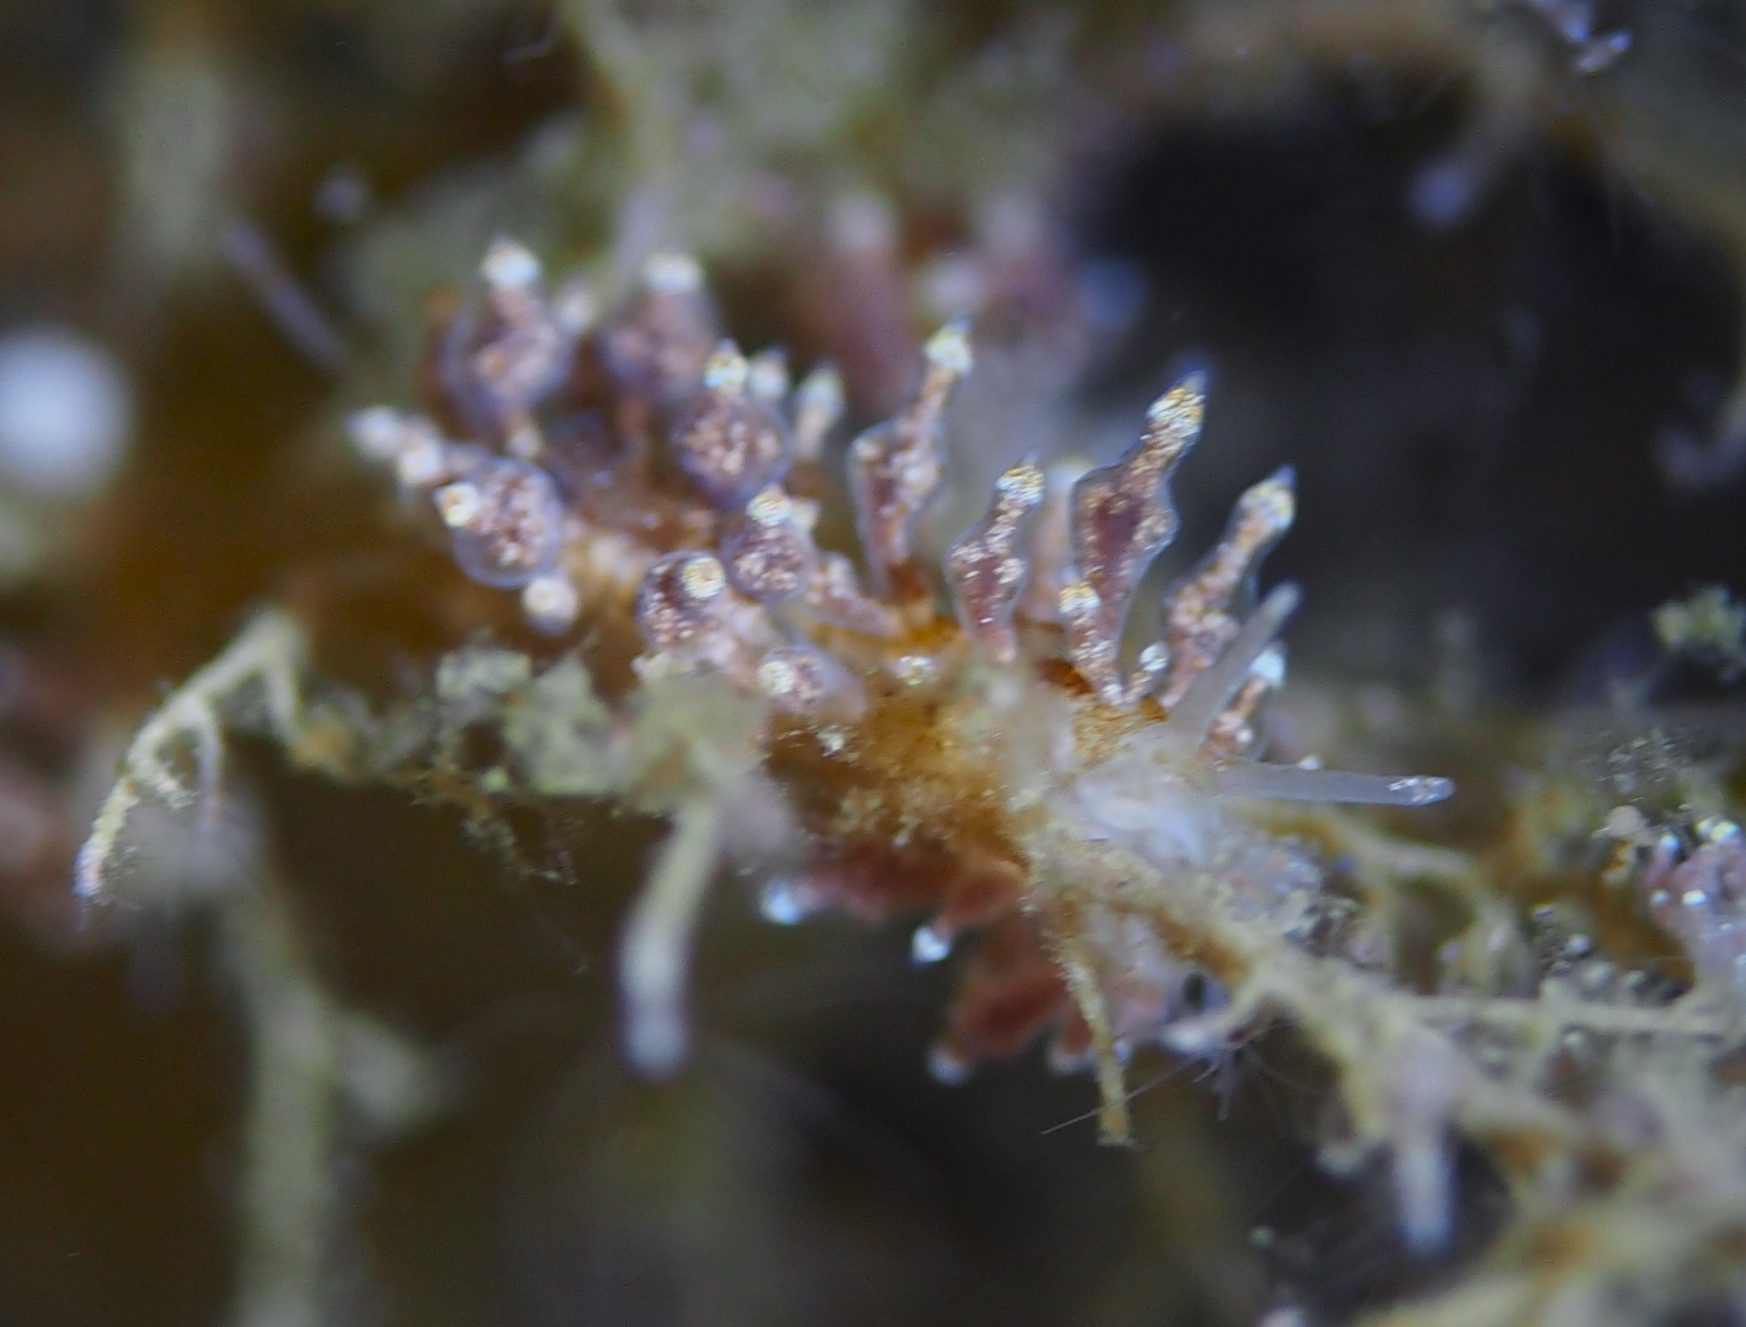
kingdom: Animalia
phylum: Mollusca
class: Gastropoda
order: Nudibranchia
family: Eubranchidae
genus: Eubranchus
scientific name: Eubranchus exiguus
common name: Balloon aeolis
